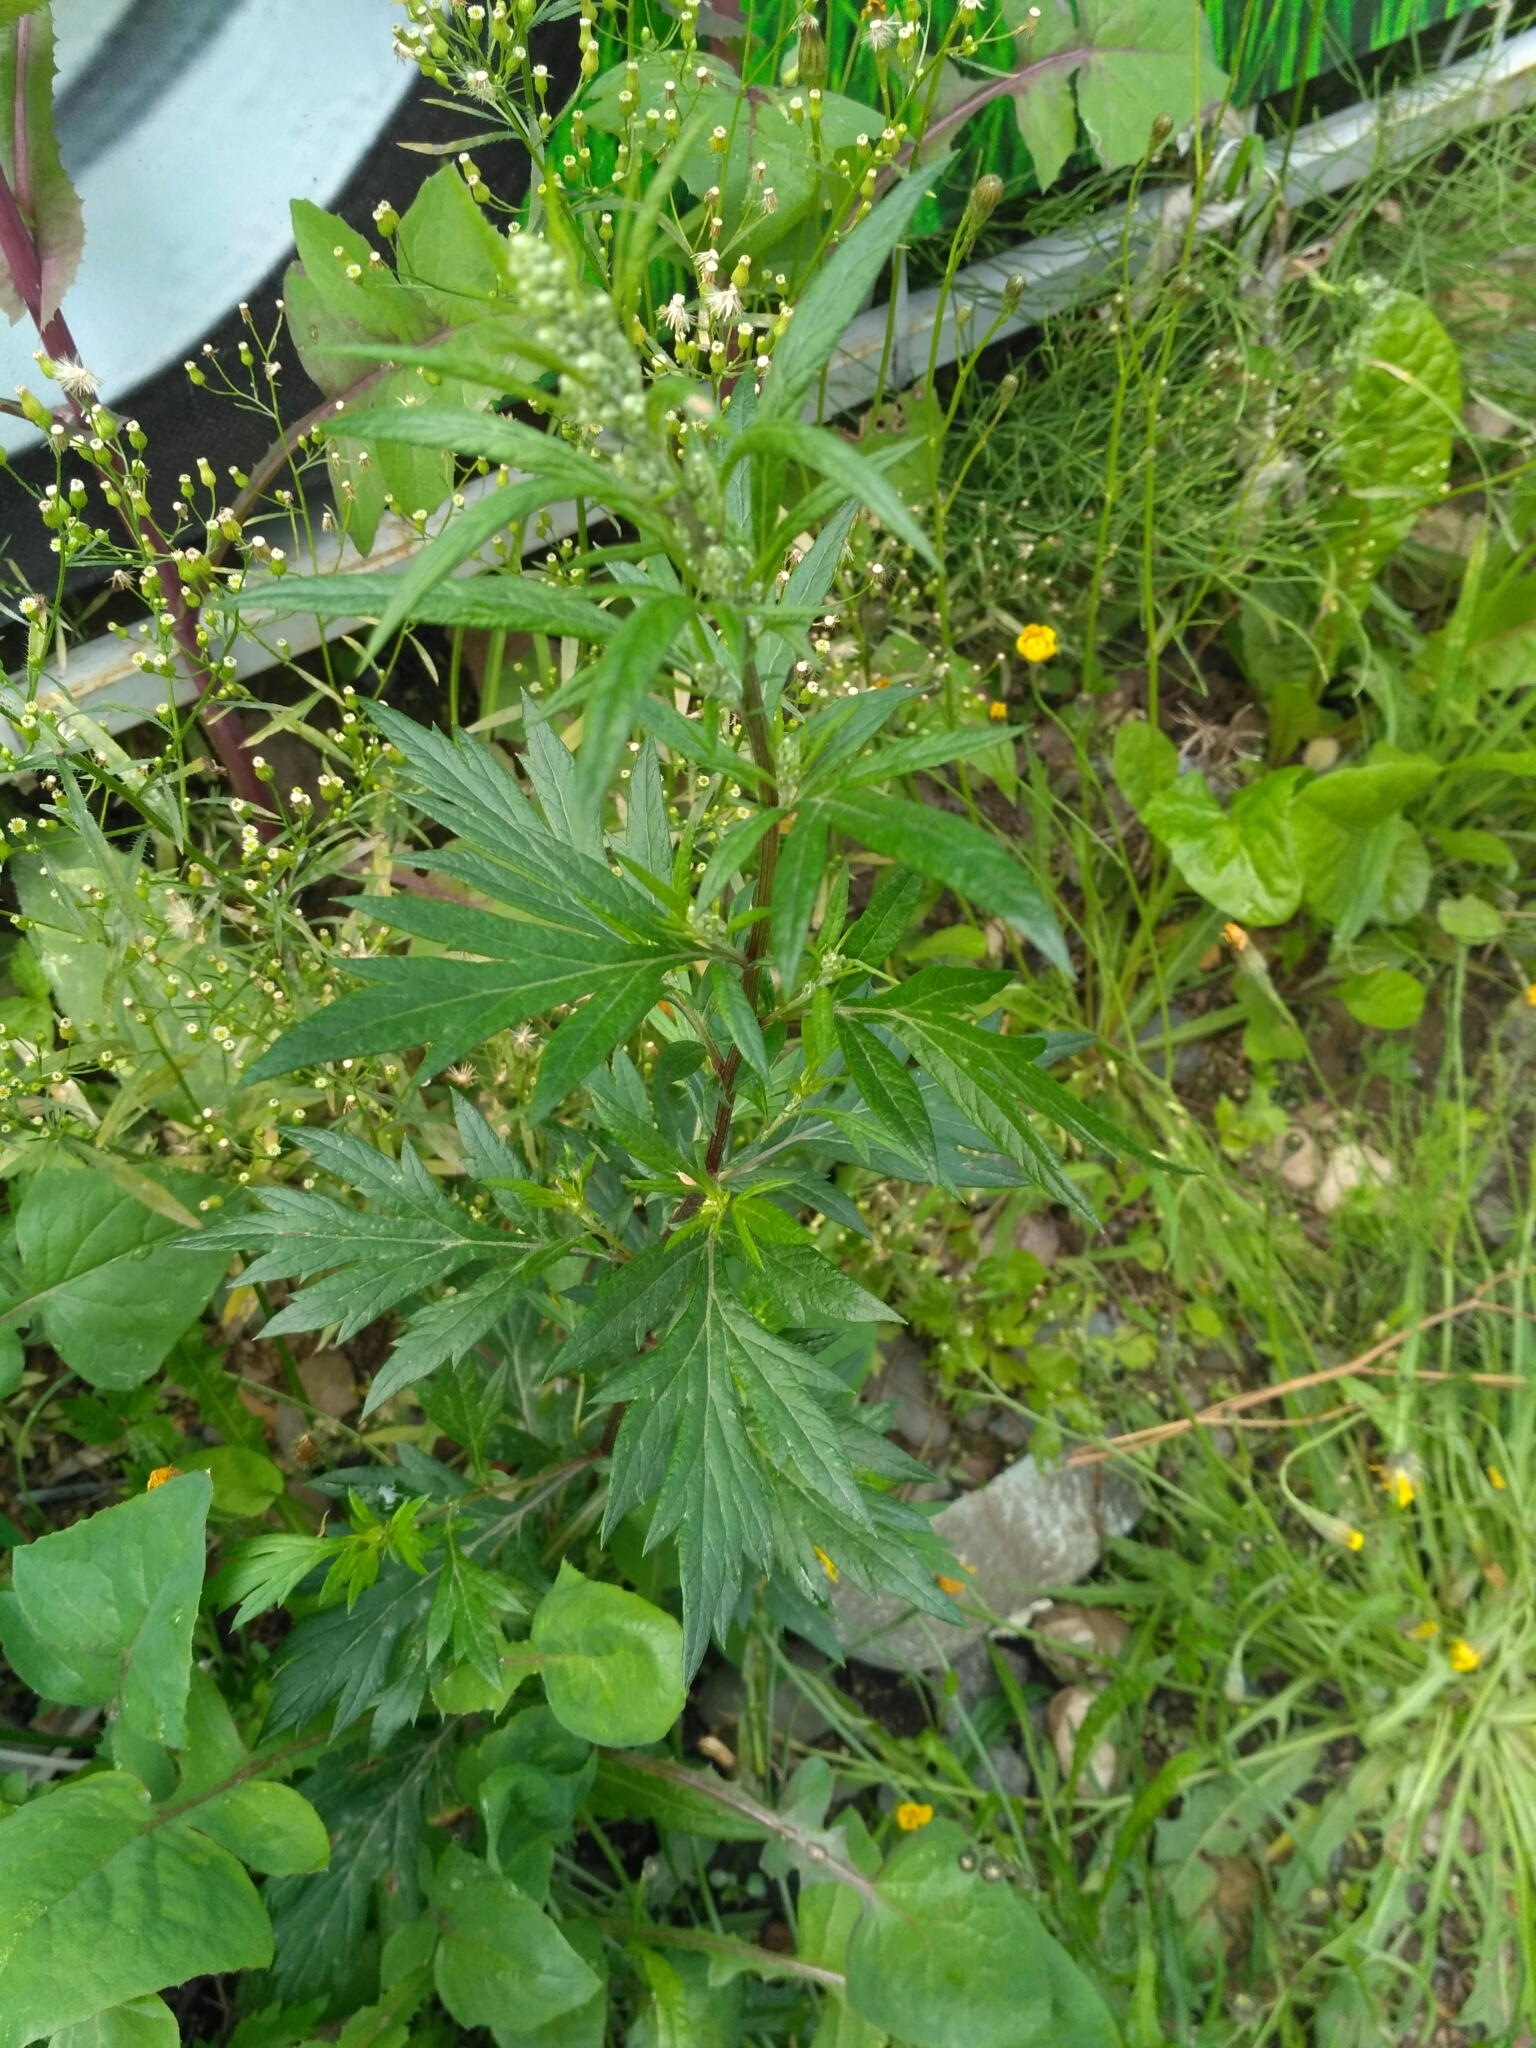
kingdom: Plantae
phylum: Tracheophyta
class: Magnoliopsida
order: Asterales
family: Asteraceae
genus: Artemisia
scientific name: Artemisia vulgaris
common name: Mugwort
